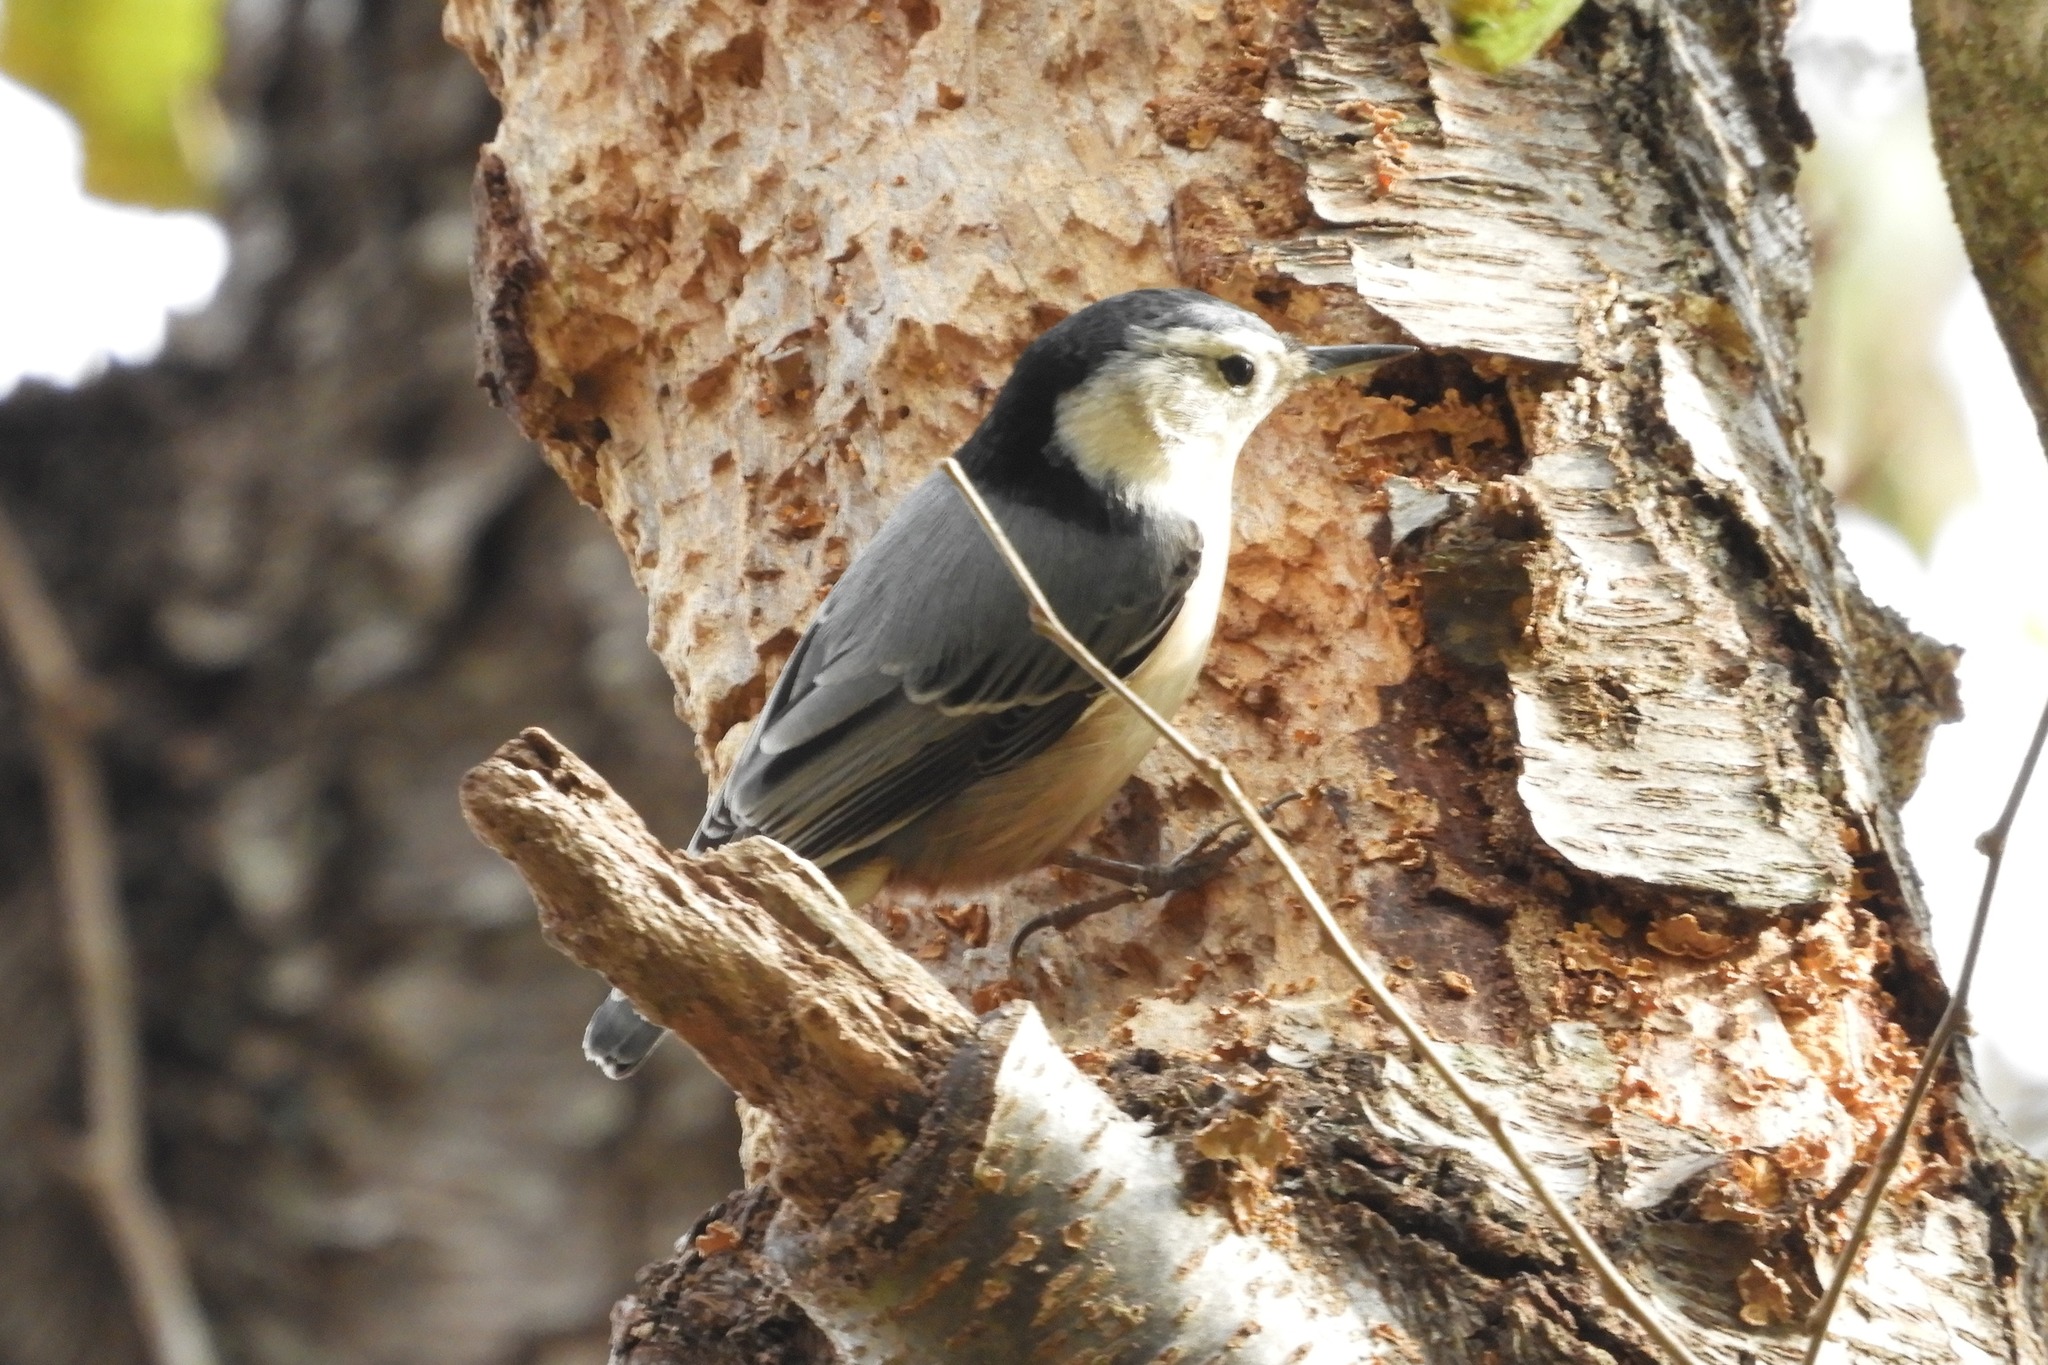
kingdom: Animalia
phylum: Chordata
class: Aves
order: Passeriformes
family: Sittidae
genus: Sitta
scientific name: Sitta carolinensis
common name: White-breasted nuthatch
